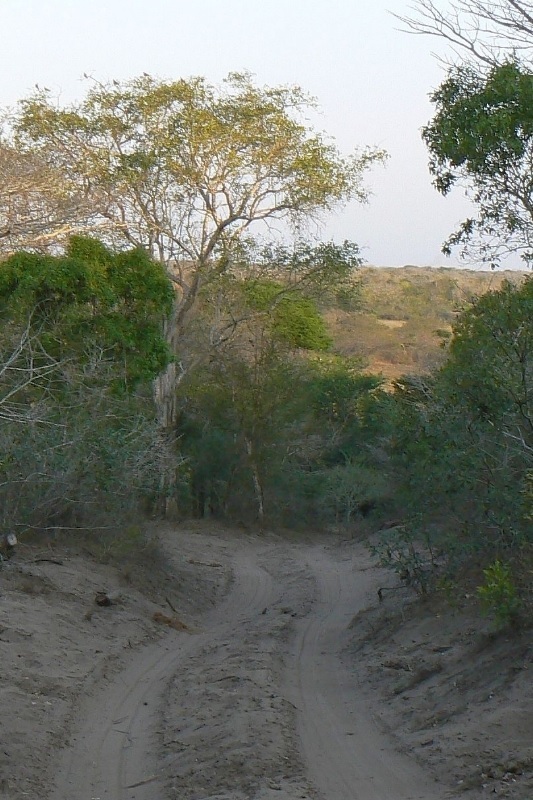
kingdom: Plantae
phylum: Tracheophyta
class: Magnoliopsida
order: Zygophyllales
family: Zygophyllaceae
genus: Balanites
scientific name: Balanites maughamii
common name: Torchwood
